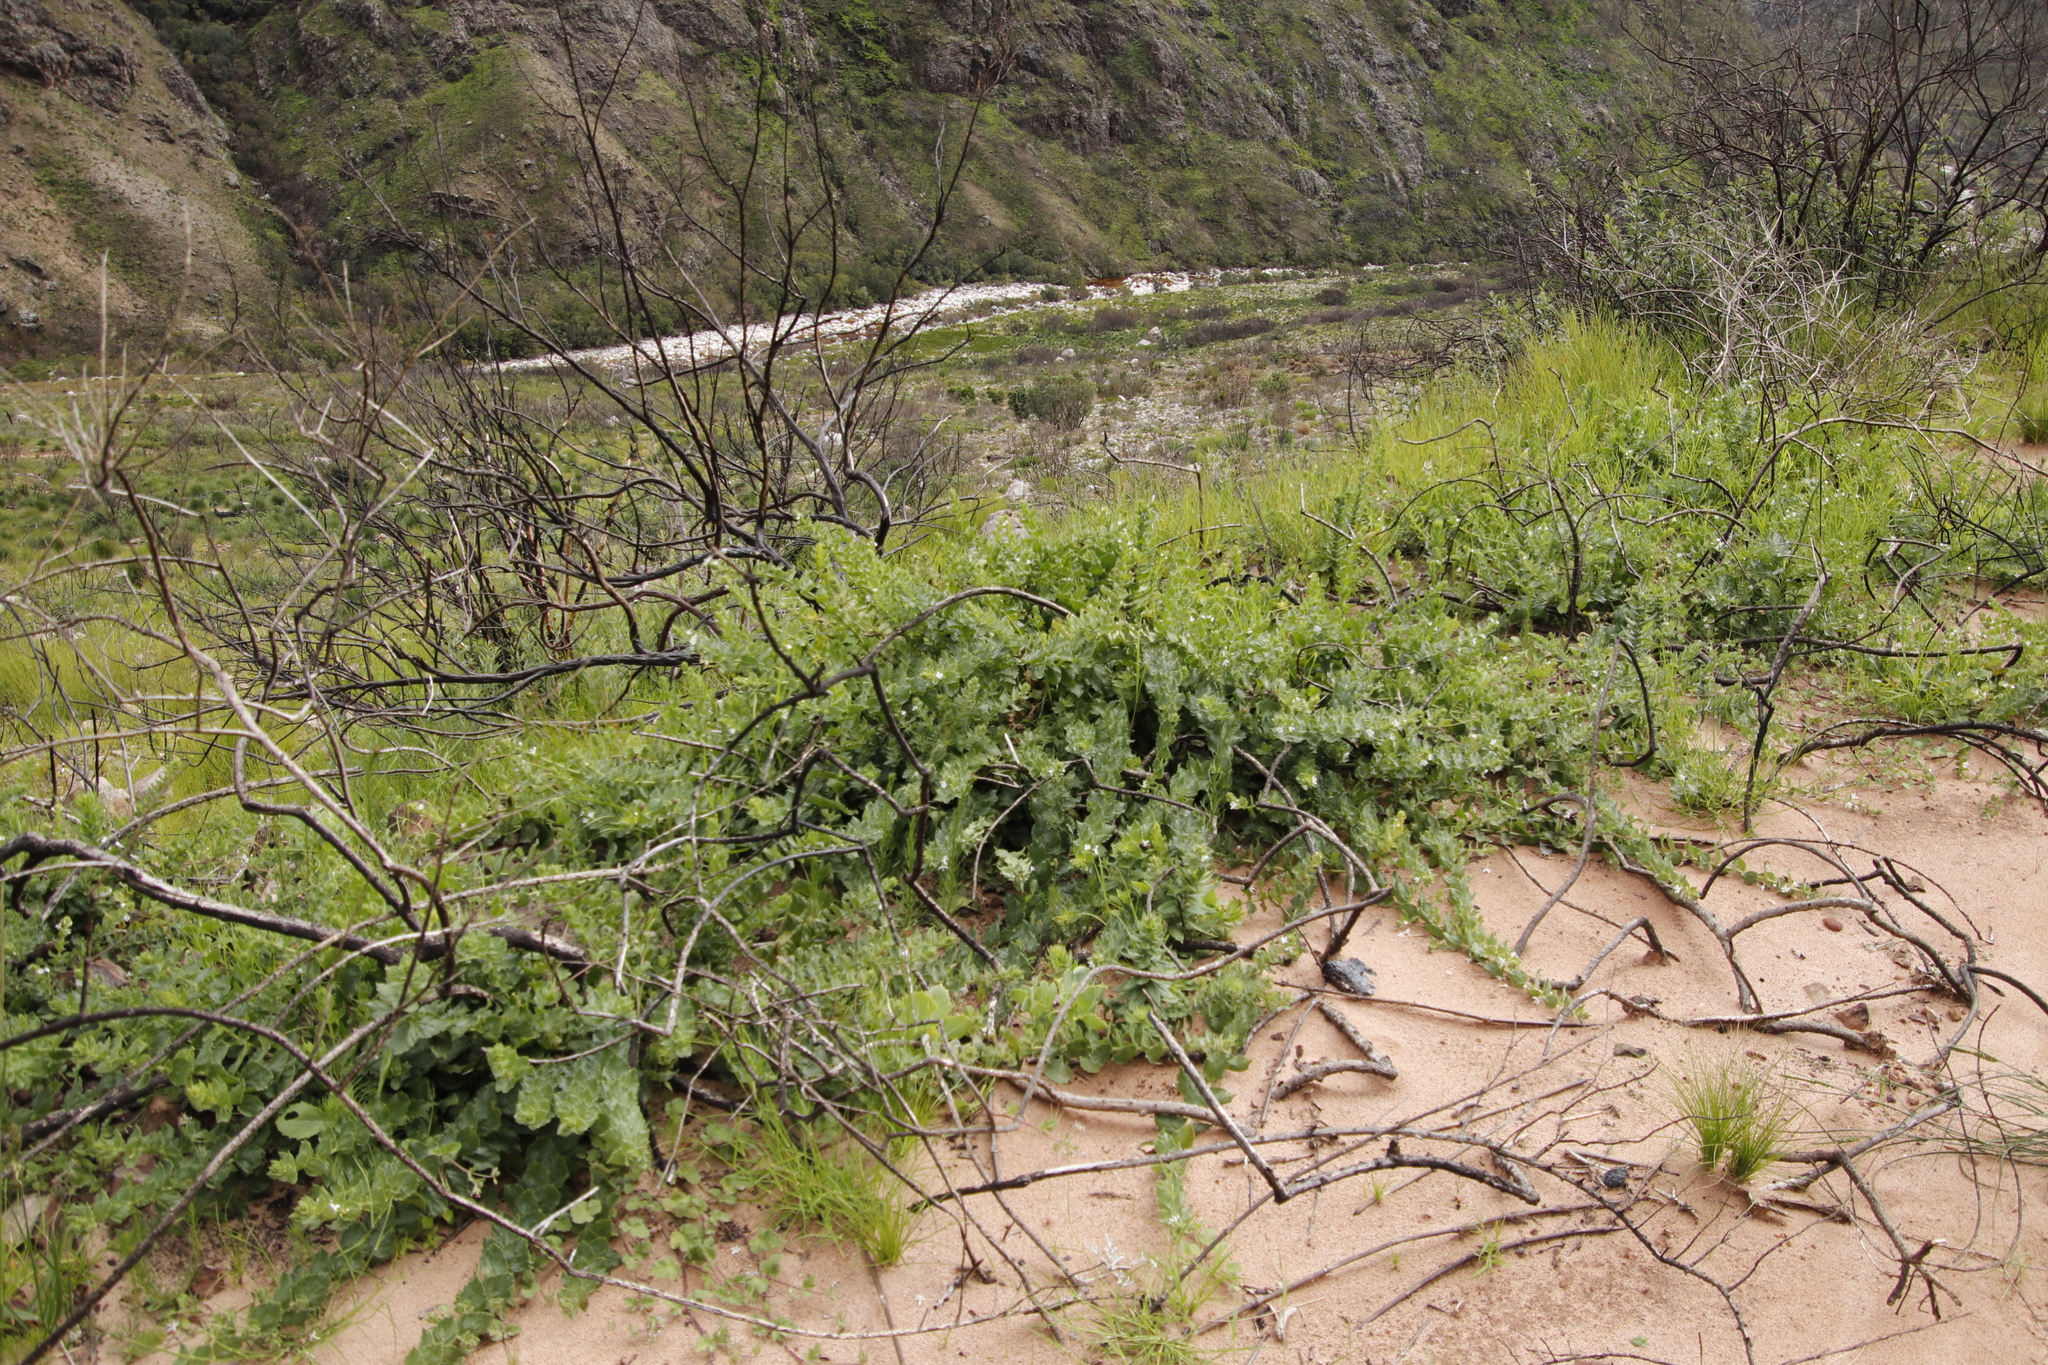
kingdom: Plantae
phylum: Tracheophyta
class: Magnoliopsida
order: Lamiales
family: Scrophulariaceae
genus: Oftia
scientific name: Oftia africana
